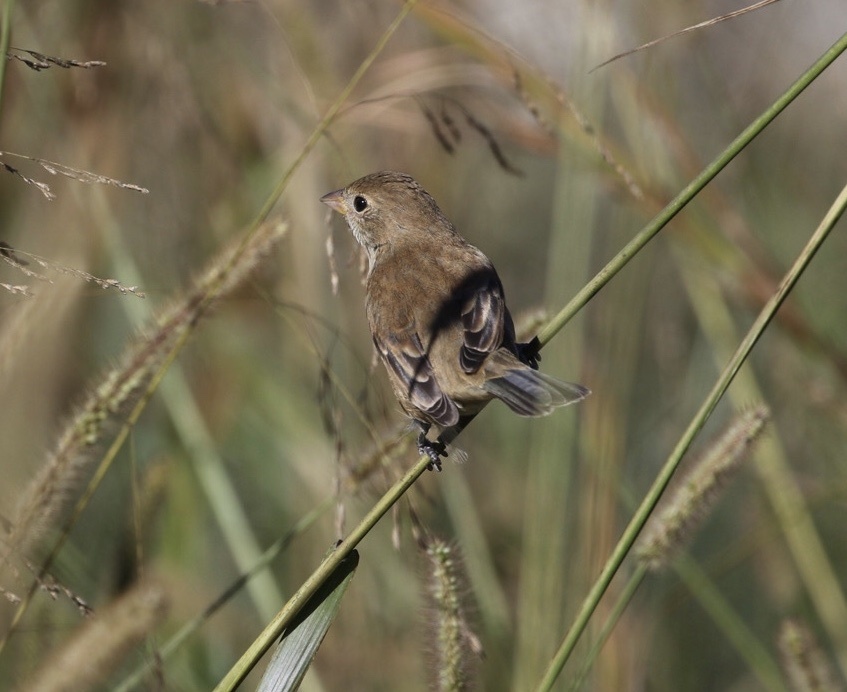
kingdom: Animalia
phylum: Chordata
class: Aves
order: Passeriformes
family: Cardinalidae
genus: Passerina
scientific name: Passerina cyanea
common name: Indigo bunting
